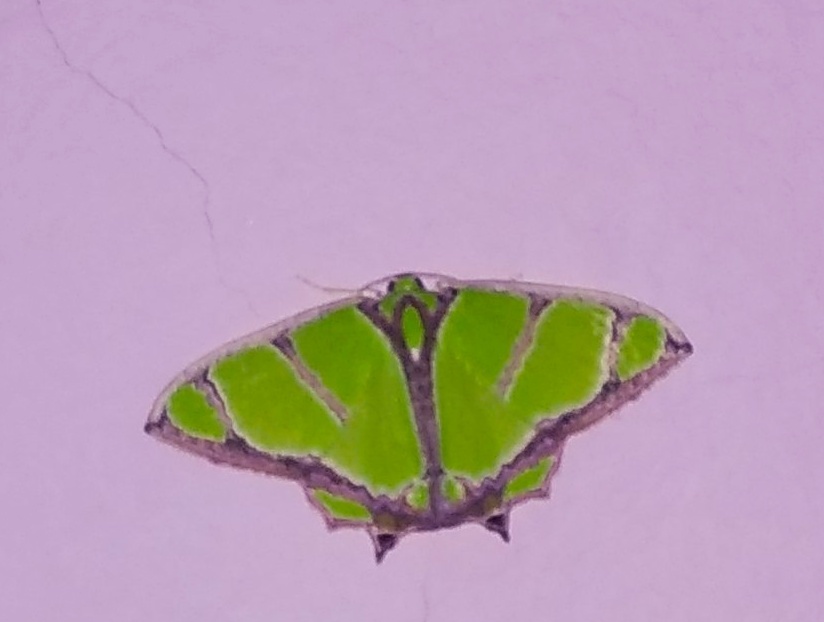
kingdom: Animalia
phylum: Arthropoda
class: Insecta
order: Lepidoptera
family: Geometridae
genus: Agathia
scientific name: Agathia angustilimes
